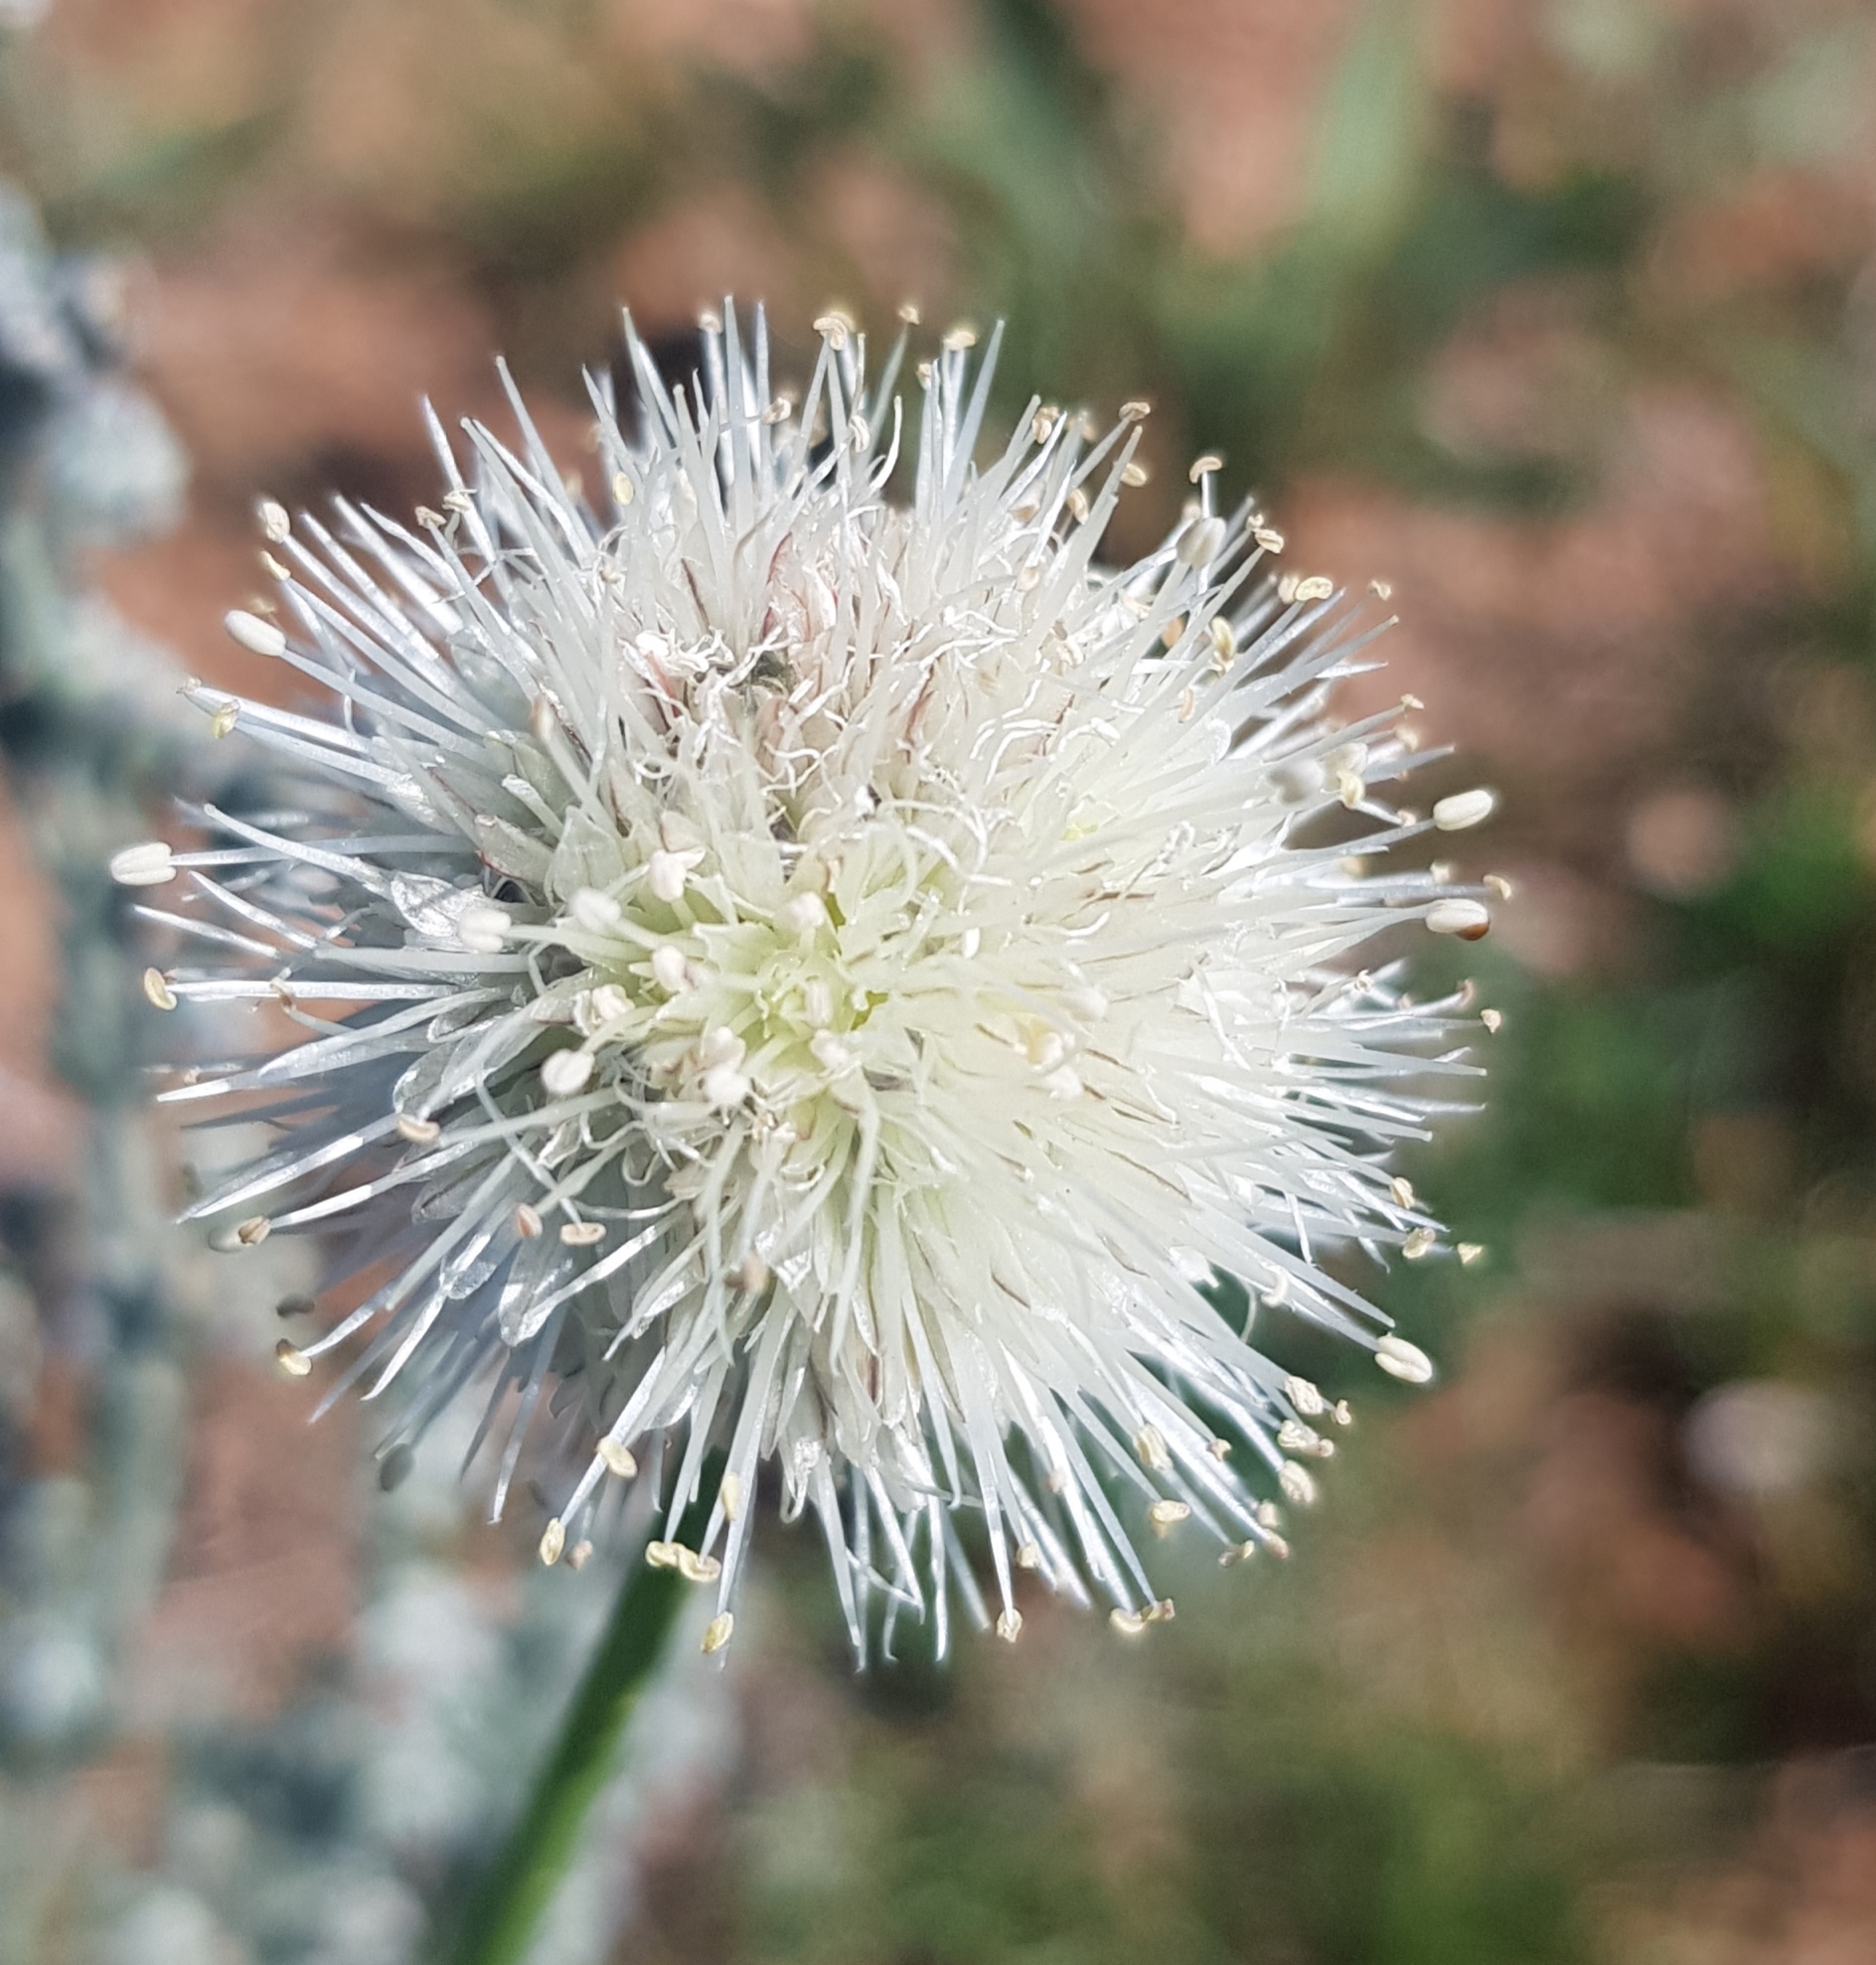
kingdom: Plantae
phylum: Tracheophyta
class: Liliopsida
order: Asparagales
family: Amaryllidaceae
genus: Allium
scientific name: Allium leucocephalum
